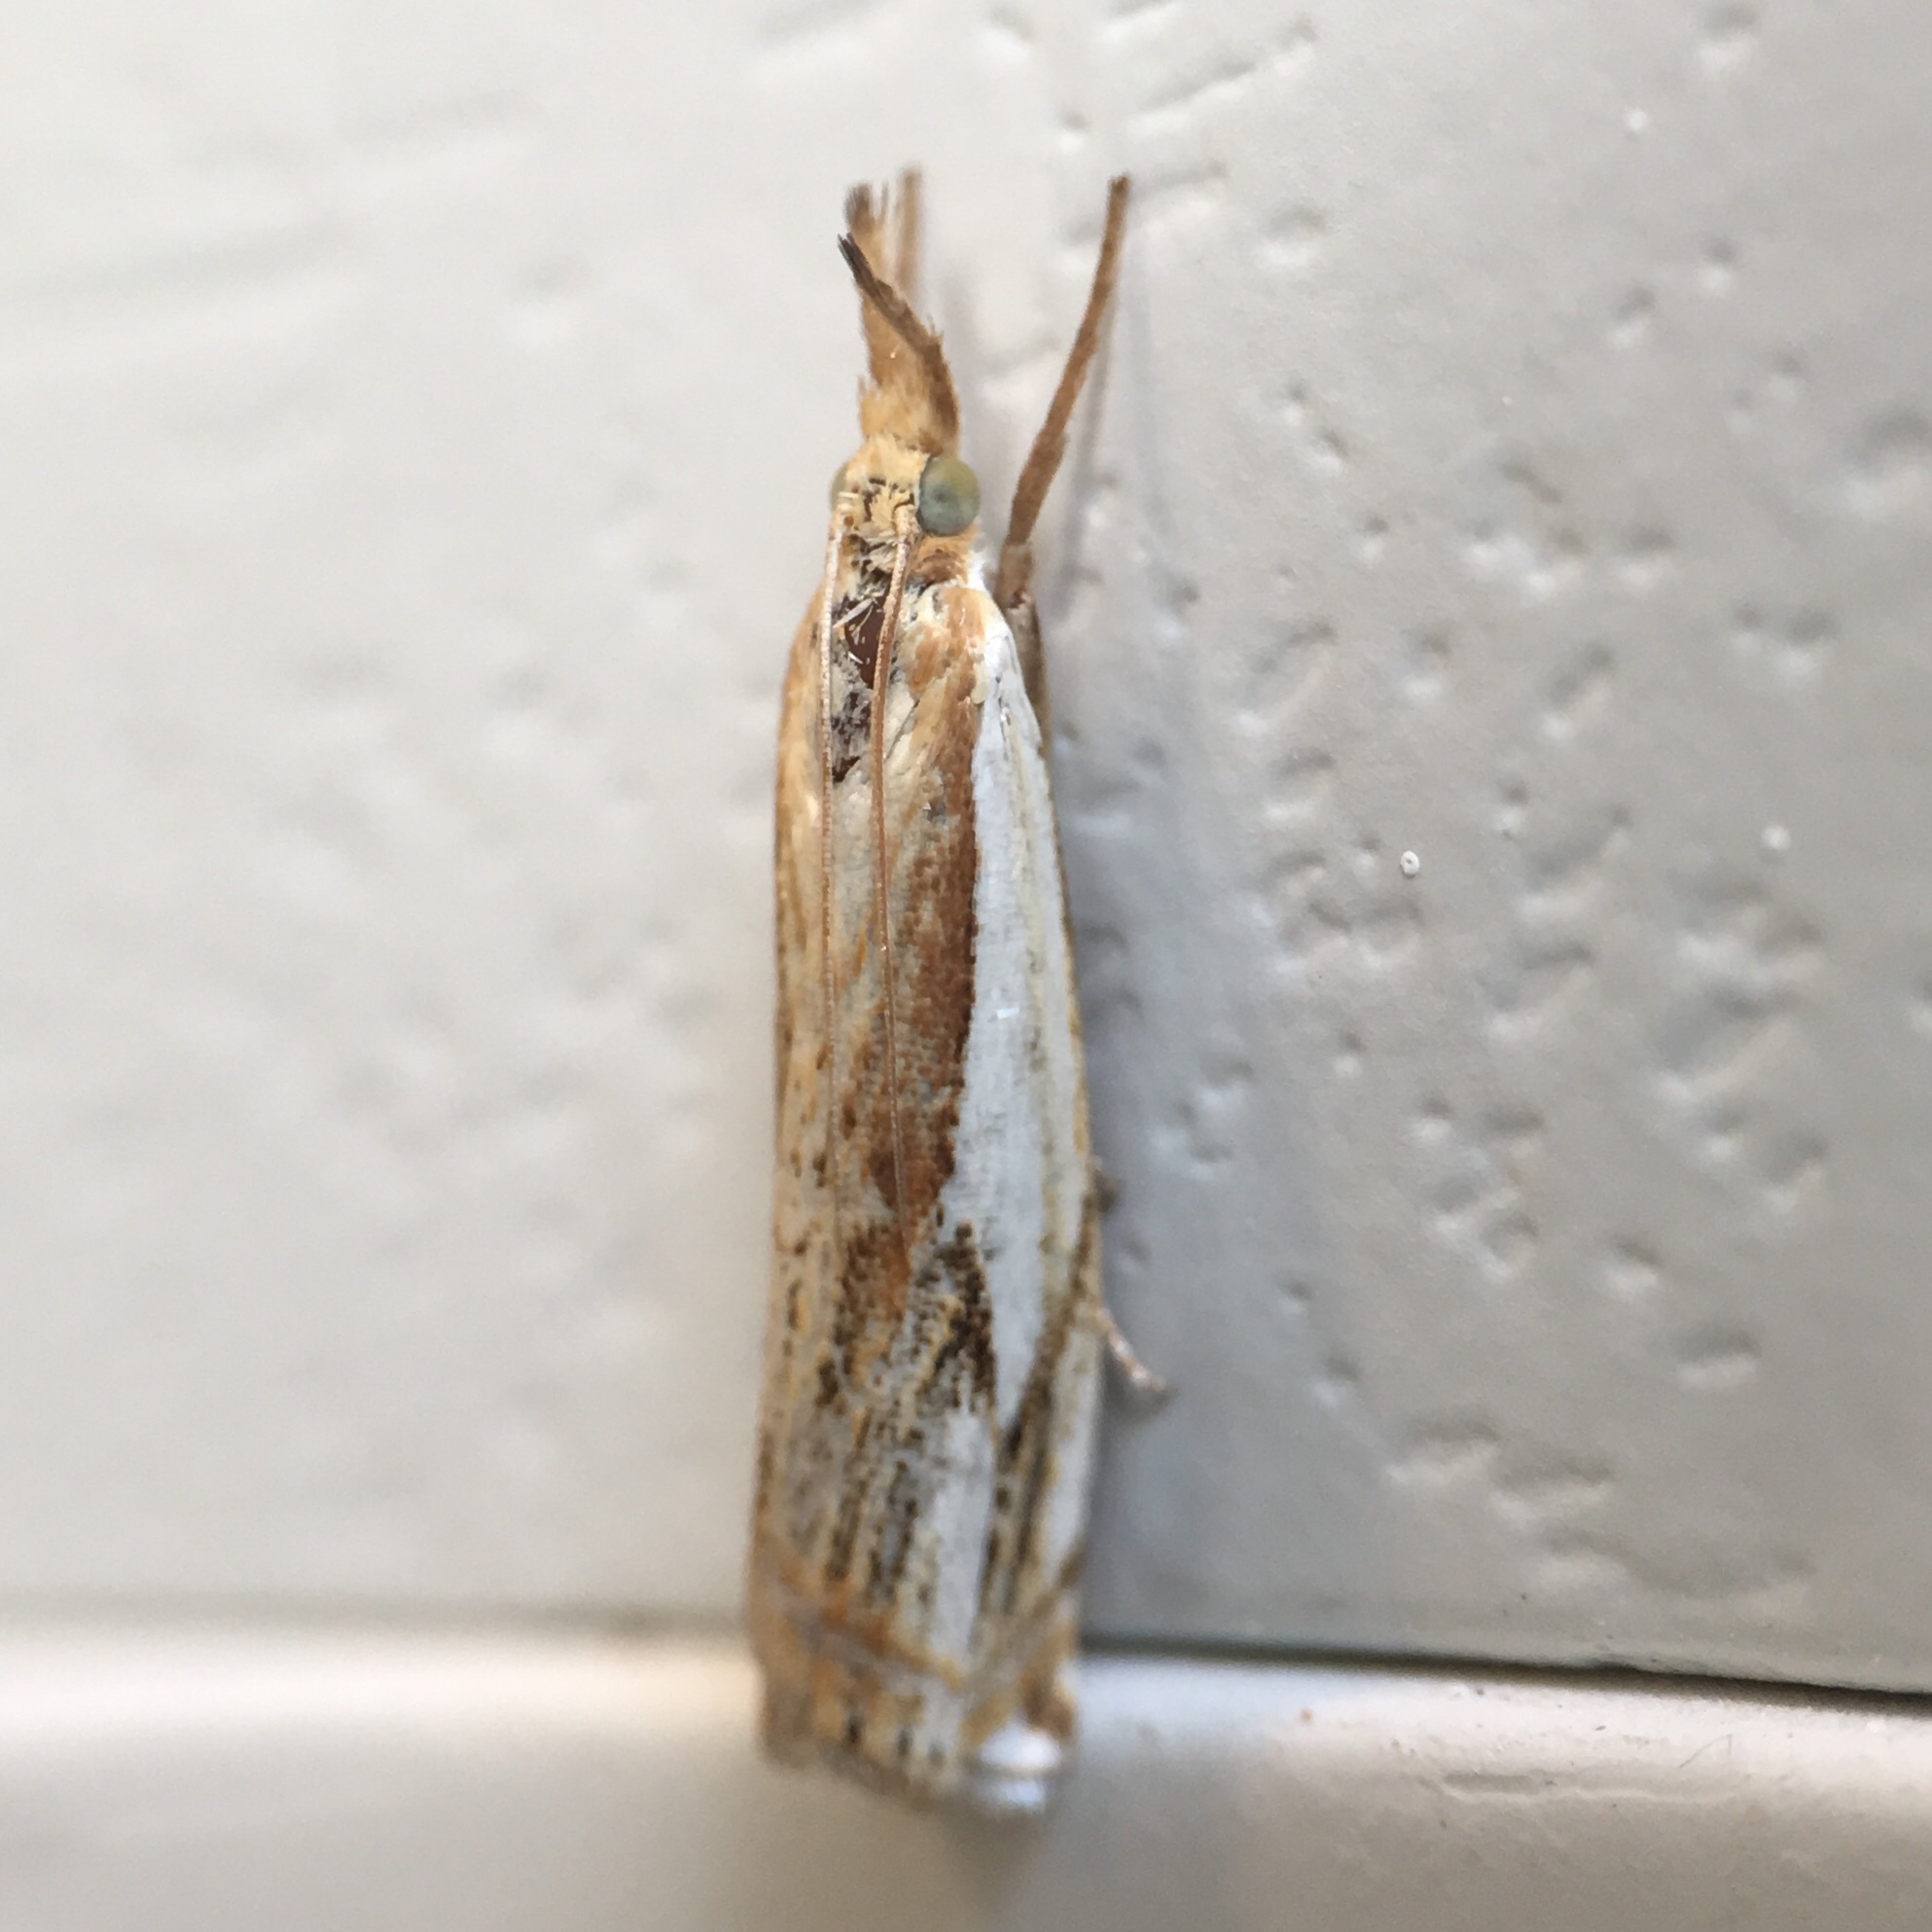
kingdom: Animalia
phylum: Arthropoda
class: Insecta
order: Lepidoptera
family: Crambidae
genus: Crambus
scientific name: Crambus agitatellus
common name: Double-banded grass-veneer
